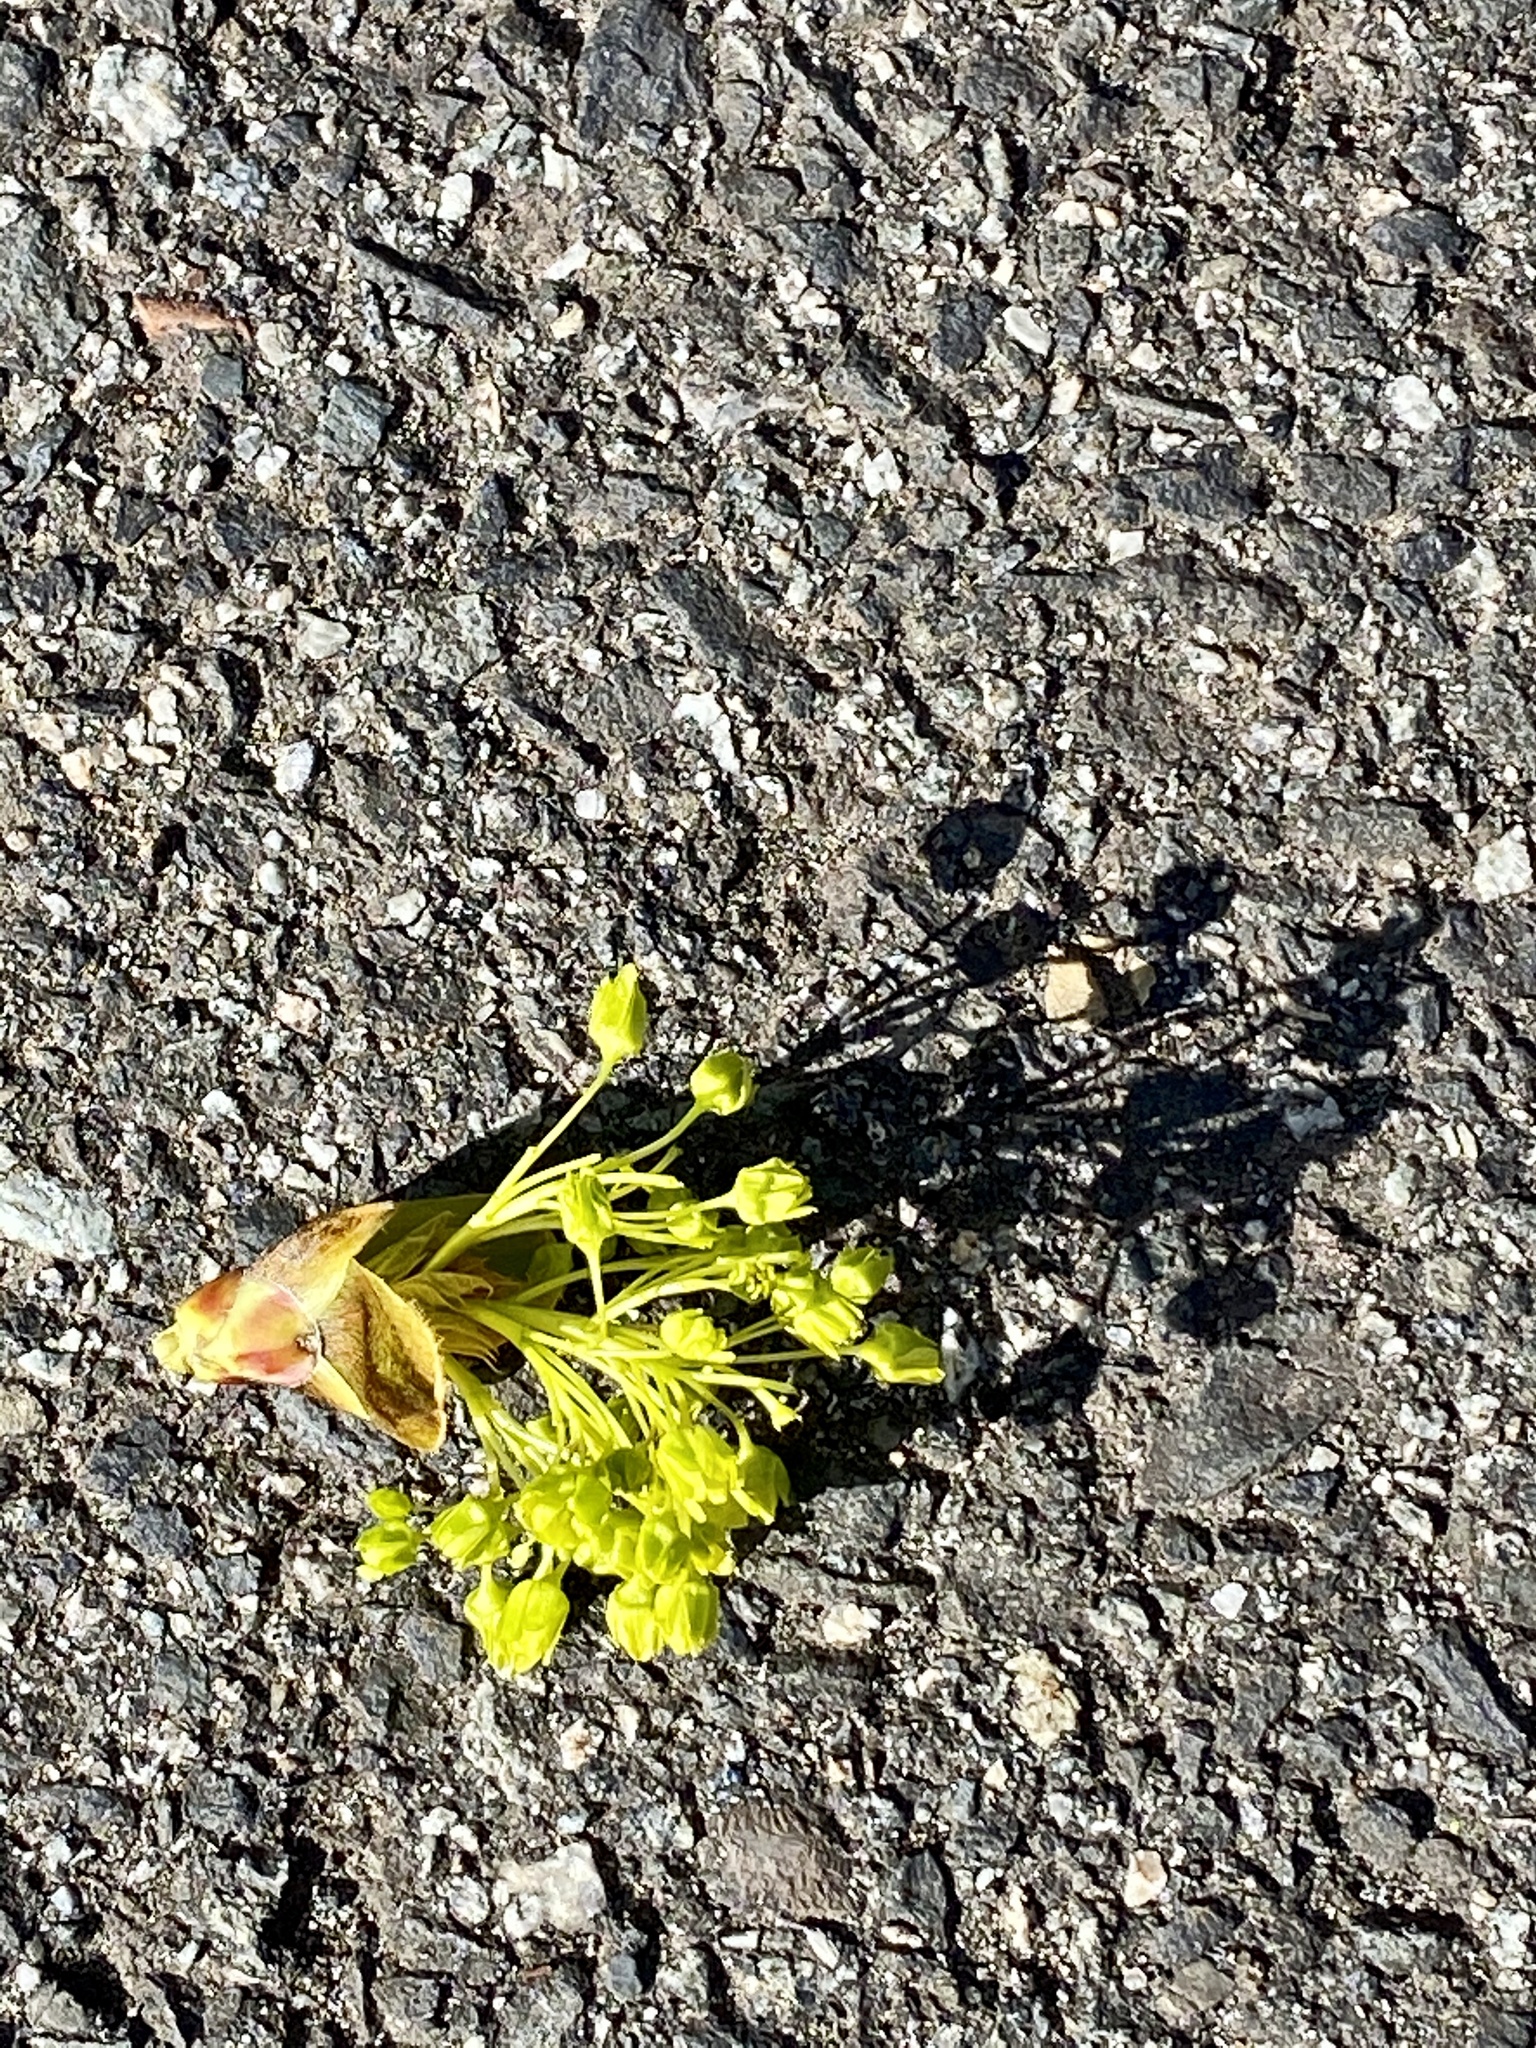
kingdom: Plantae
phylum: Tracheophyta
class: Magnoliopsida
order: Sapindales
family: Sapindaceae
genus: Acer
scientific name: Acer platanoides
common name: Norway maple
